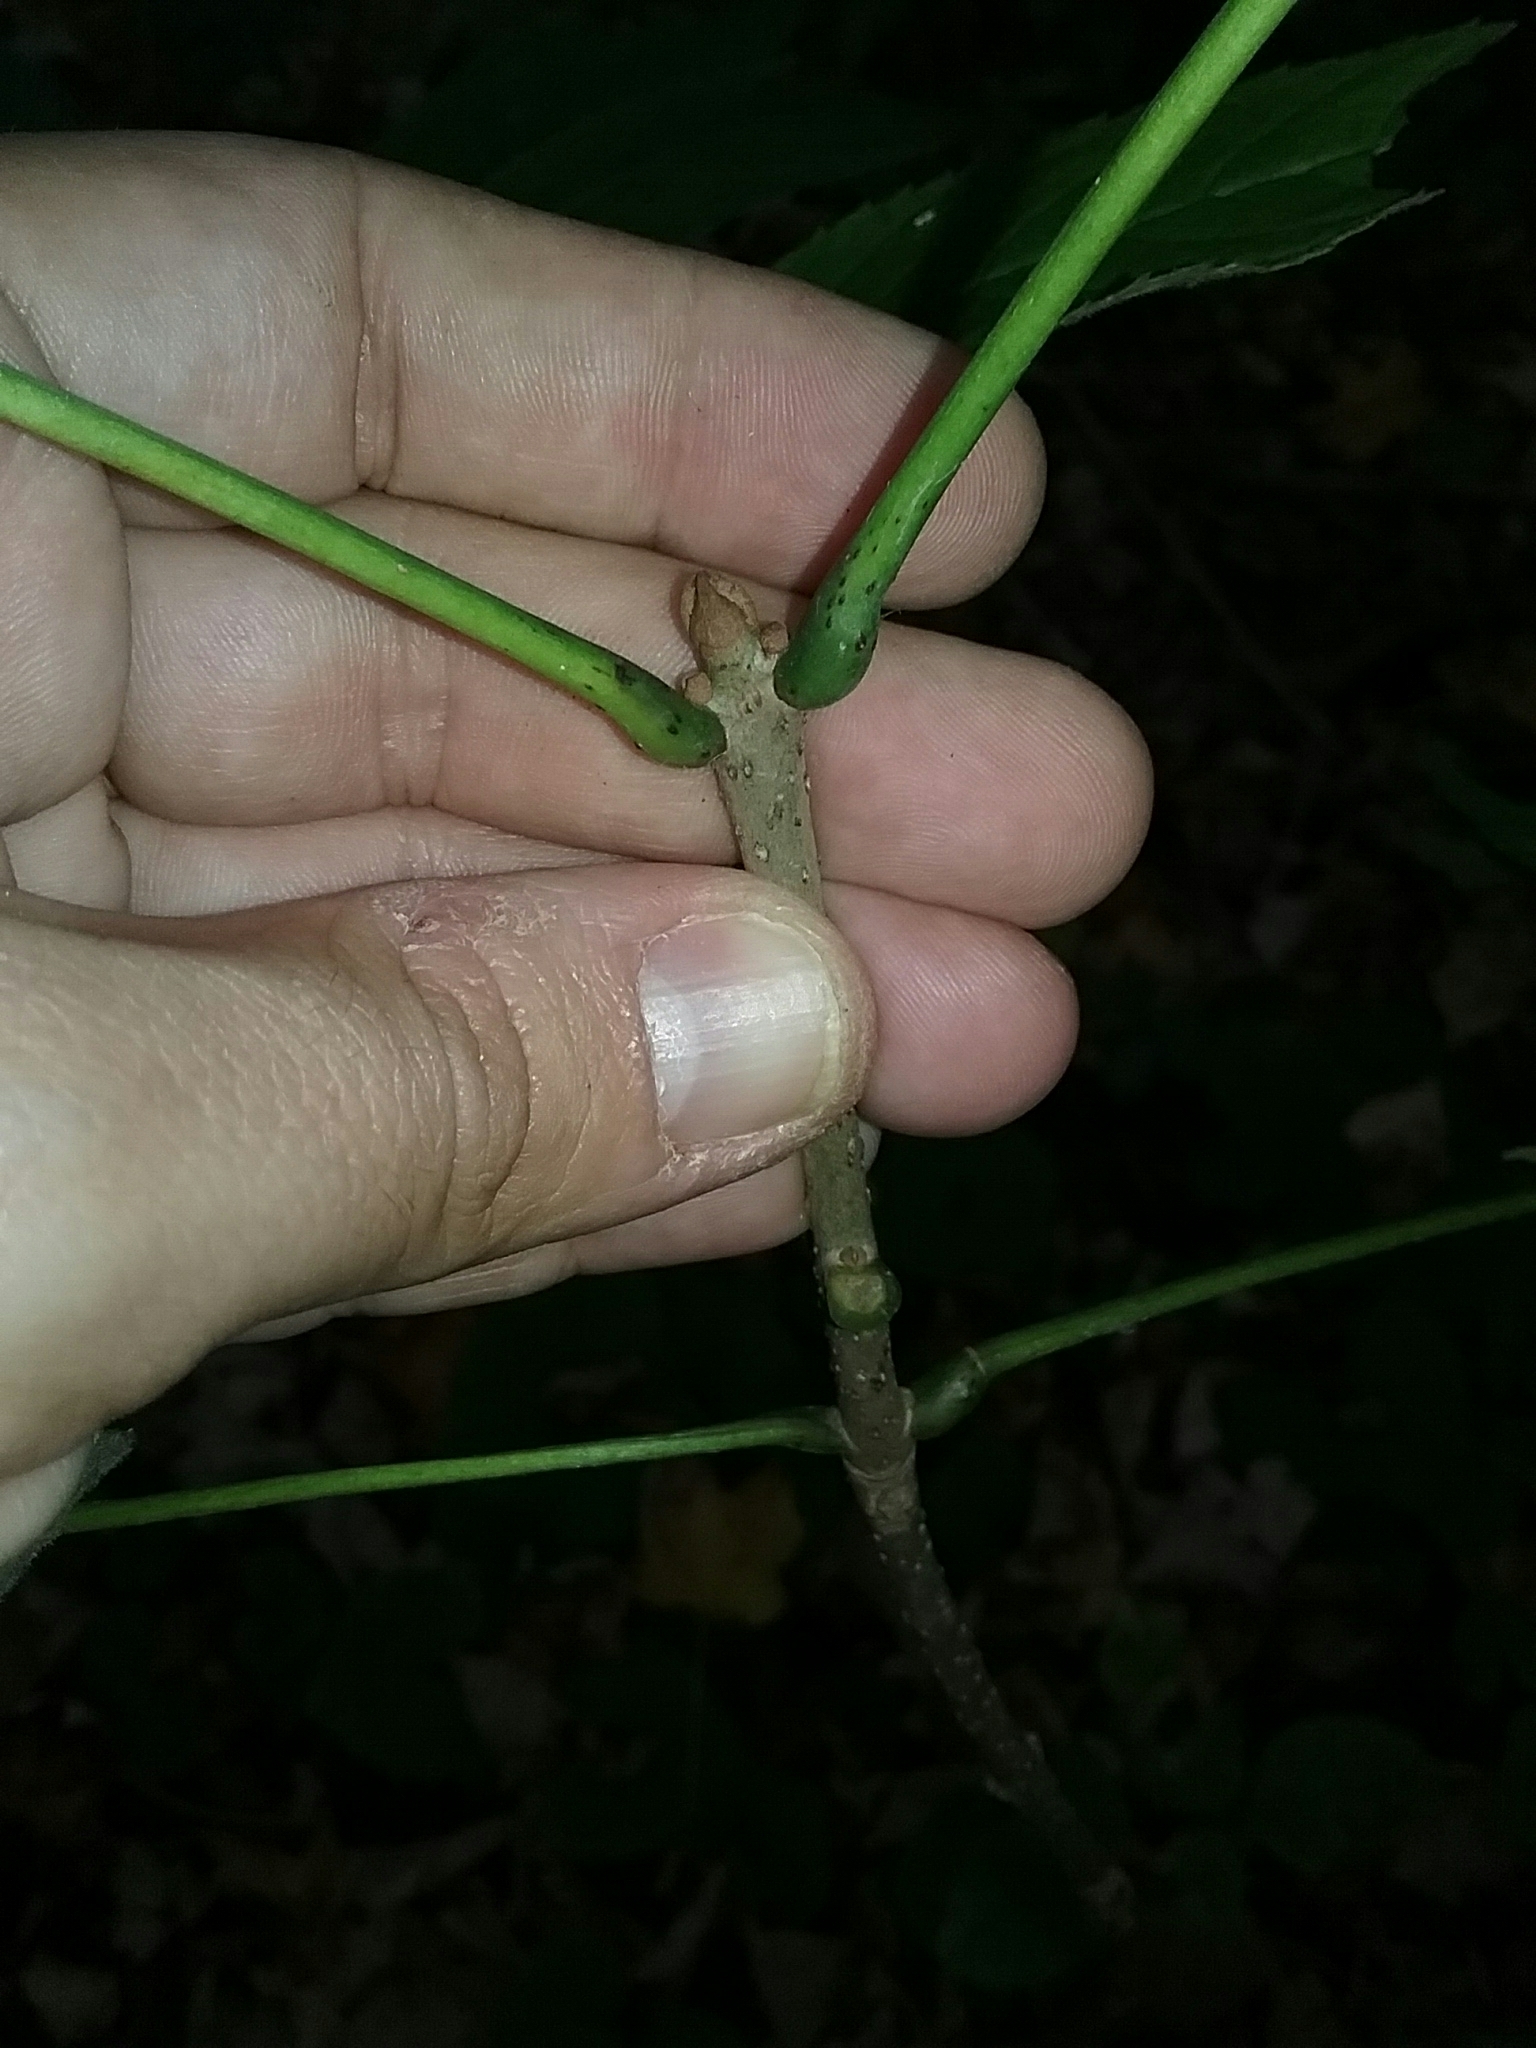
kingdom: Plantae
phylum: Tracheophyta
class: Magnoliopsida
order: Lamiales
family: Oleaceae
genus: Fraxinus
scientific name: Fraxinus nigra
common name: Black ash
